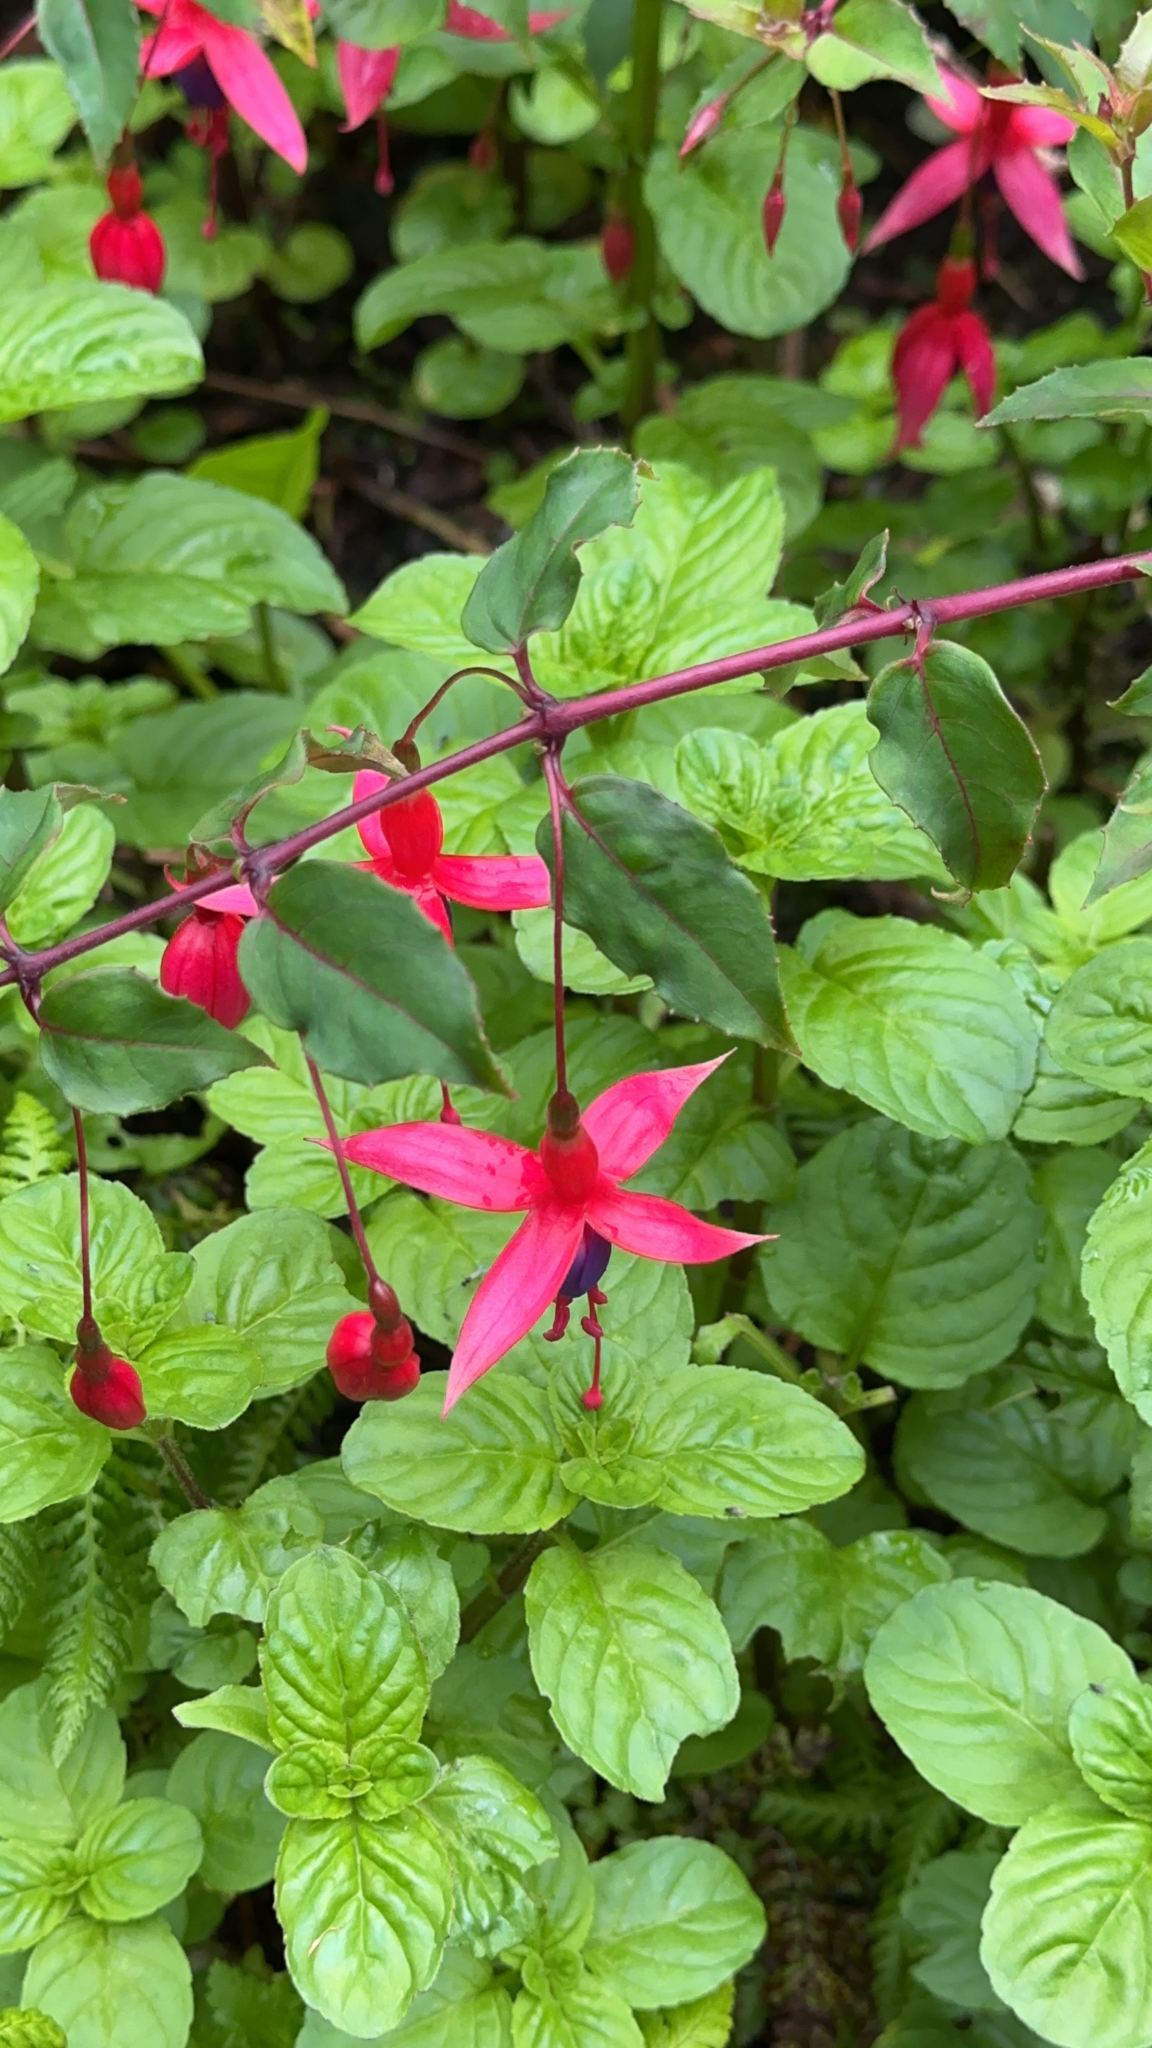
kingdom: Plantae
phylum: Tracheophyta
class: Magnoliopsida
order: Myrtales
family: Onagraceae
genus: Fuchsia
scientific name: Fuchsia magellanica
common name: Hardy fuchsia
